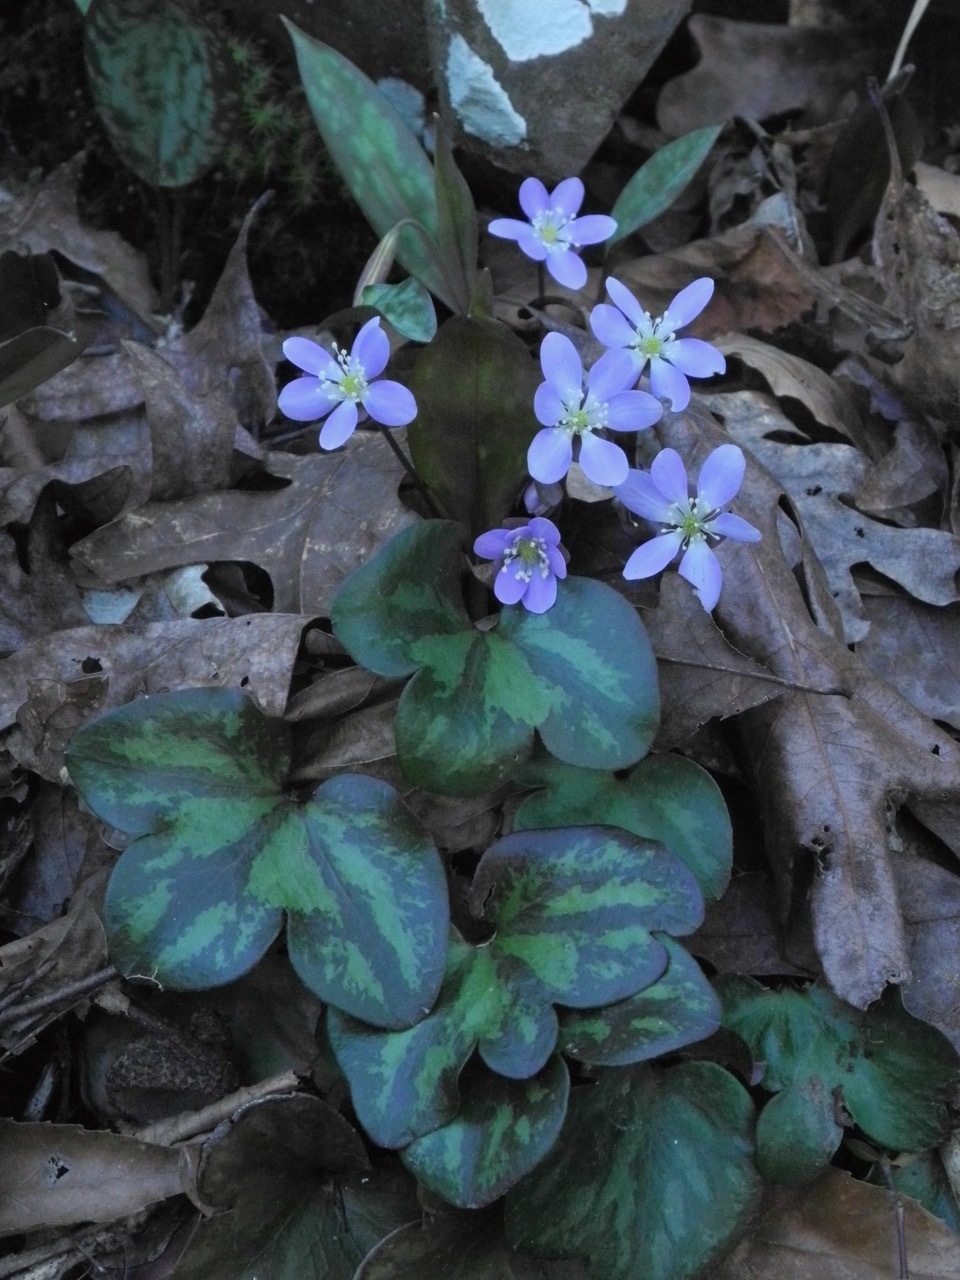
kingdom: Plantae
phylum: Tracheophyta
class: Magnoliopsida
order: Ranunculales
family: Ranunculaceae
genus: Hepatica
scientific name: Hepatica americana
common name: American hepatica
